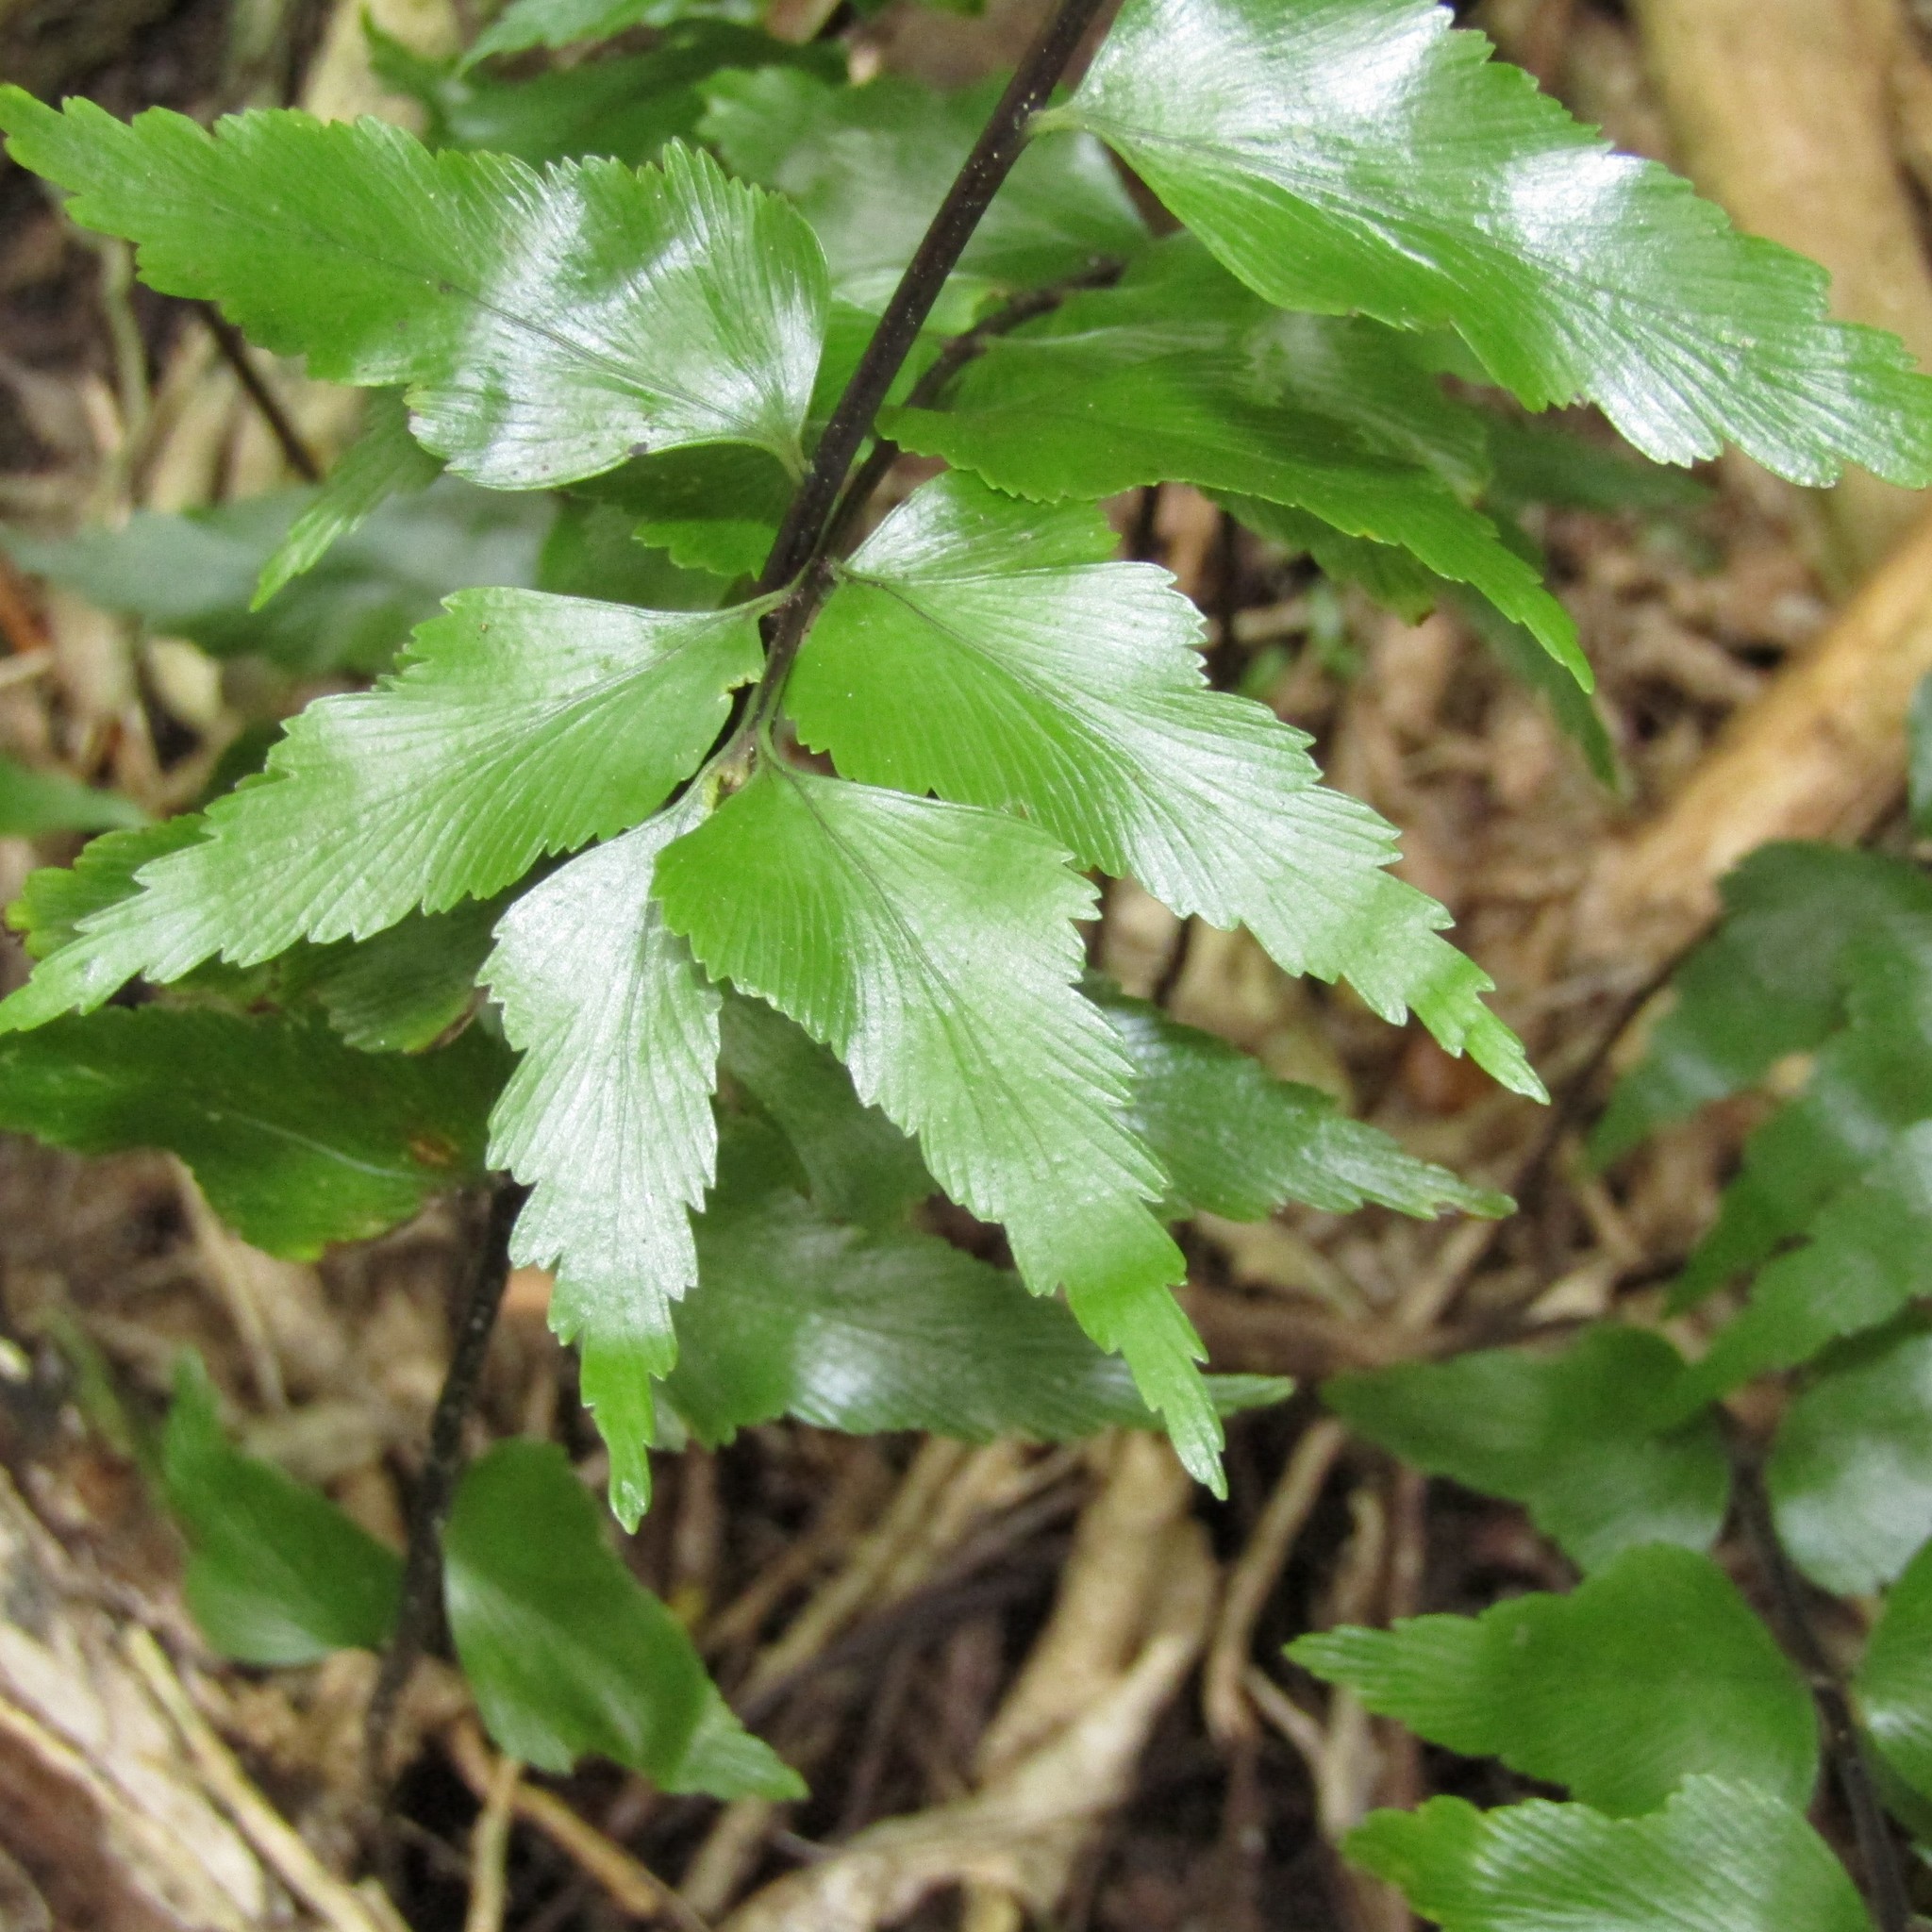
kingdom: Plantae
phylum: Tracheophyta
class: Polypodiopsida
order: Polypodiales
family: Aspleniaceae
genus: Asplenium
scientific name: Asplenium polyodon
